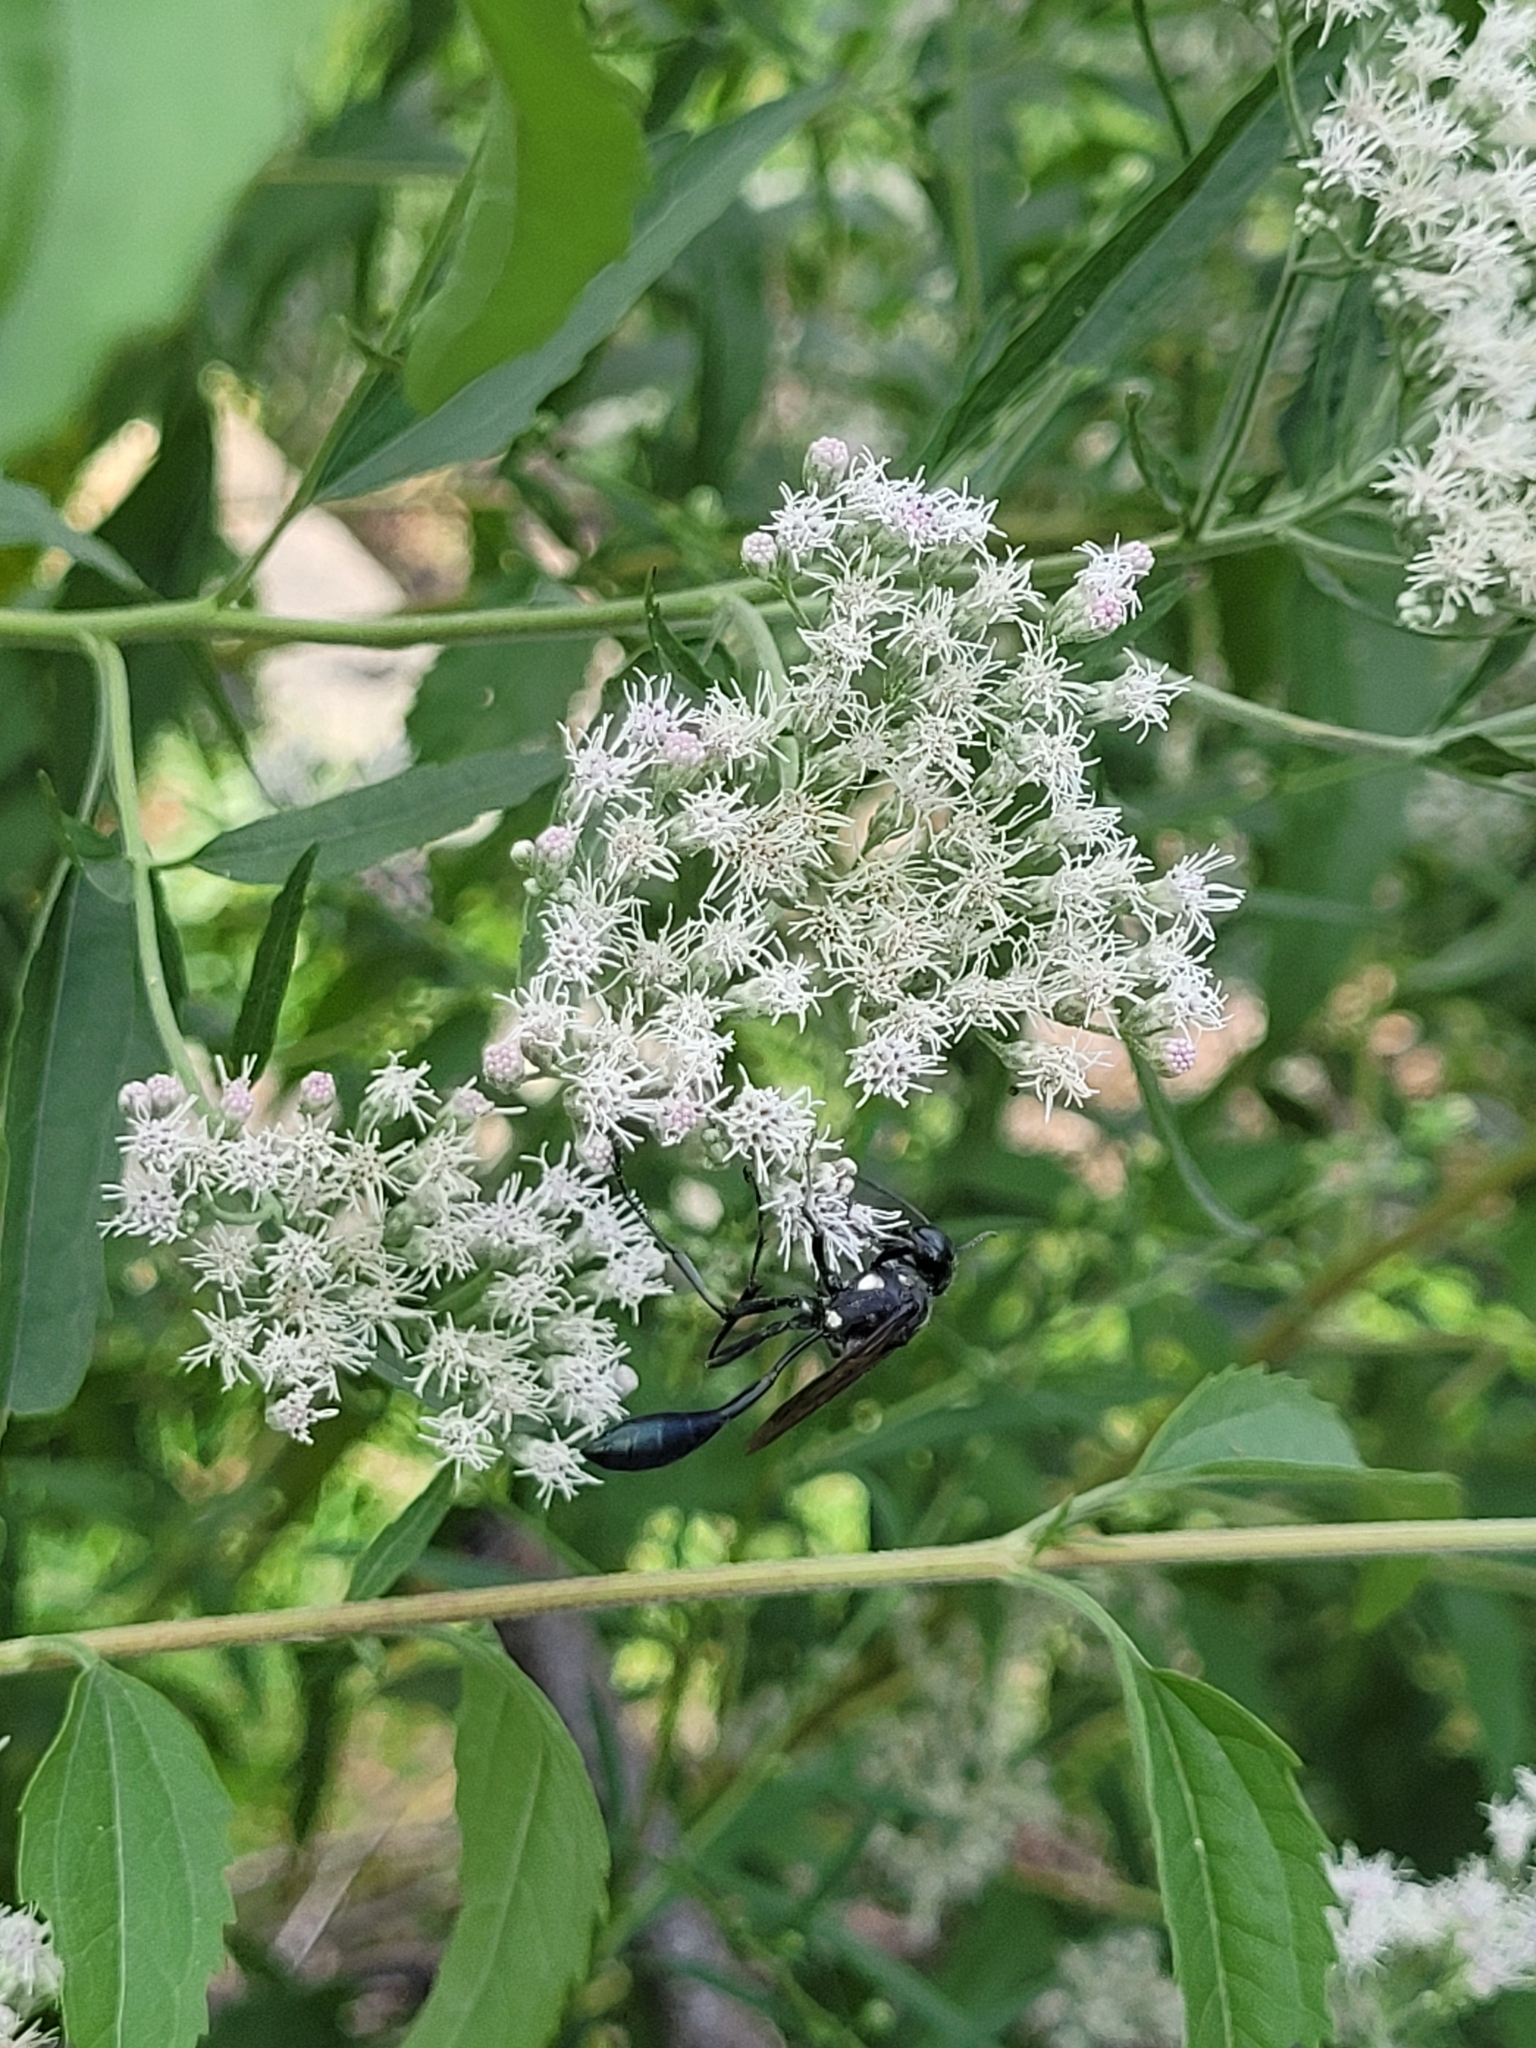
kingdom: Animalia
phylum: Arthropoda
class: Insecta
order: Hymenoptera
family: Sphecidae
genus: Eremnophila
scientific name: Eremnophila aureonotata
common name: Gold-marked thread-waisted wasp
